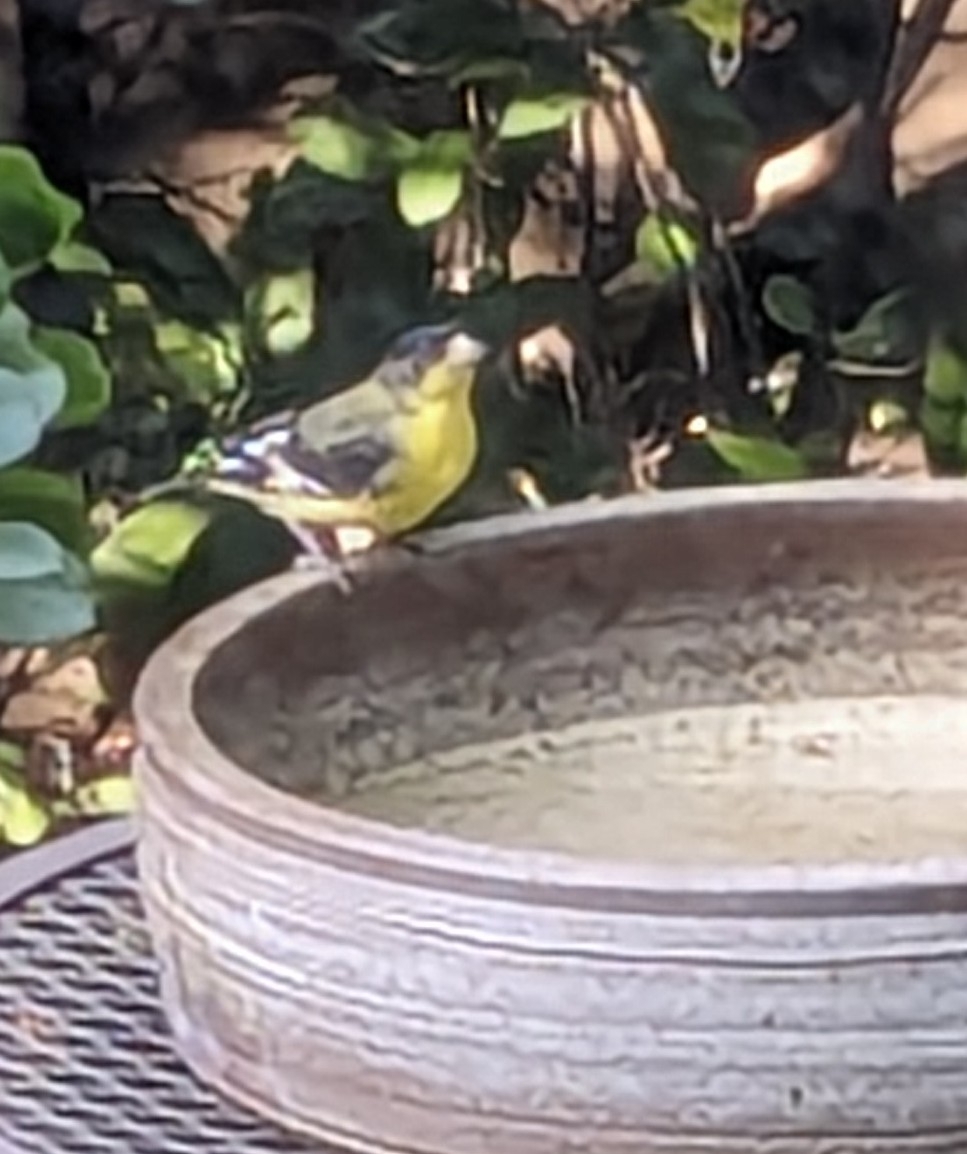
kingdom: Animalia
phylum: Chordata
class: Aves
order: Passeriformes
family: Fringillidae
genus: Spinus
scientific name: Spinus psaltria
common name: Lesser goldfinch
